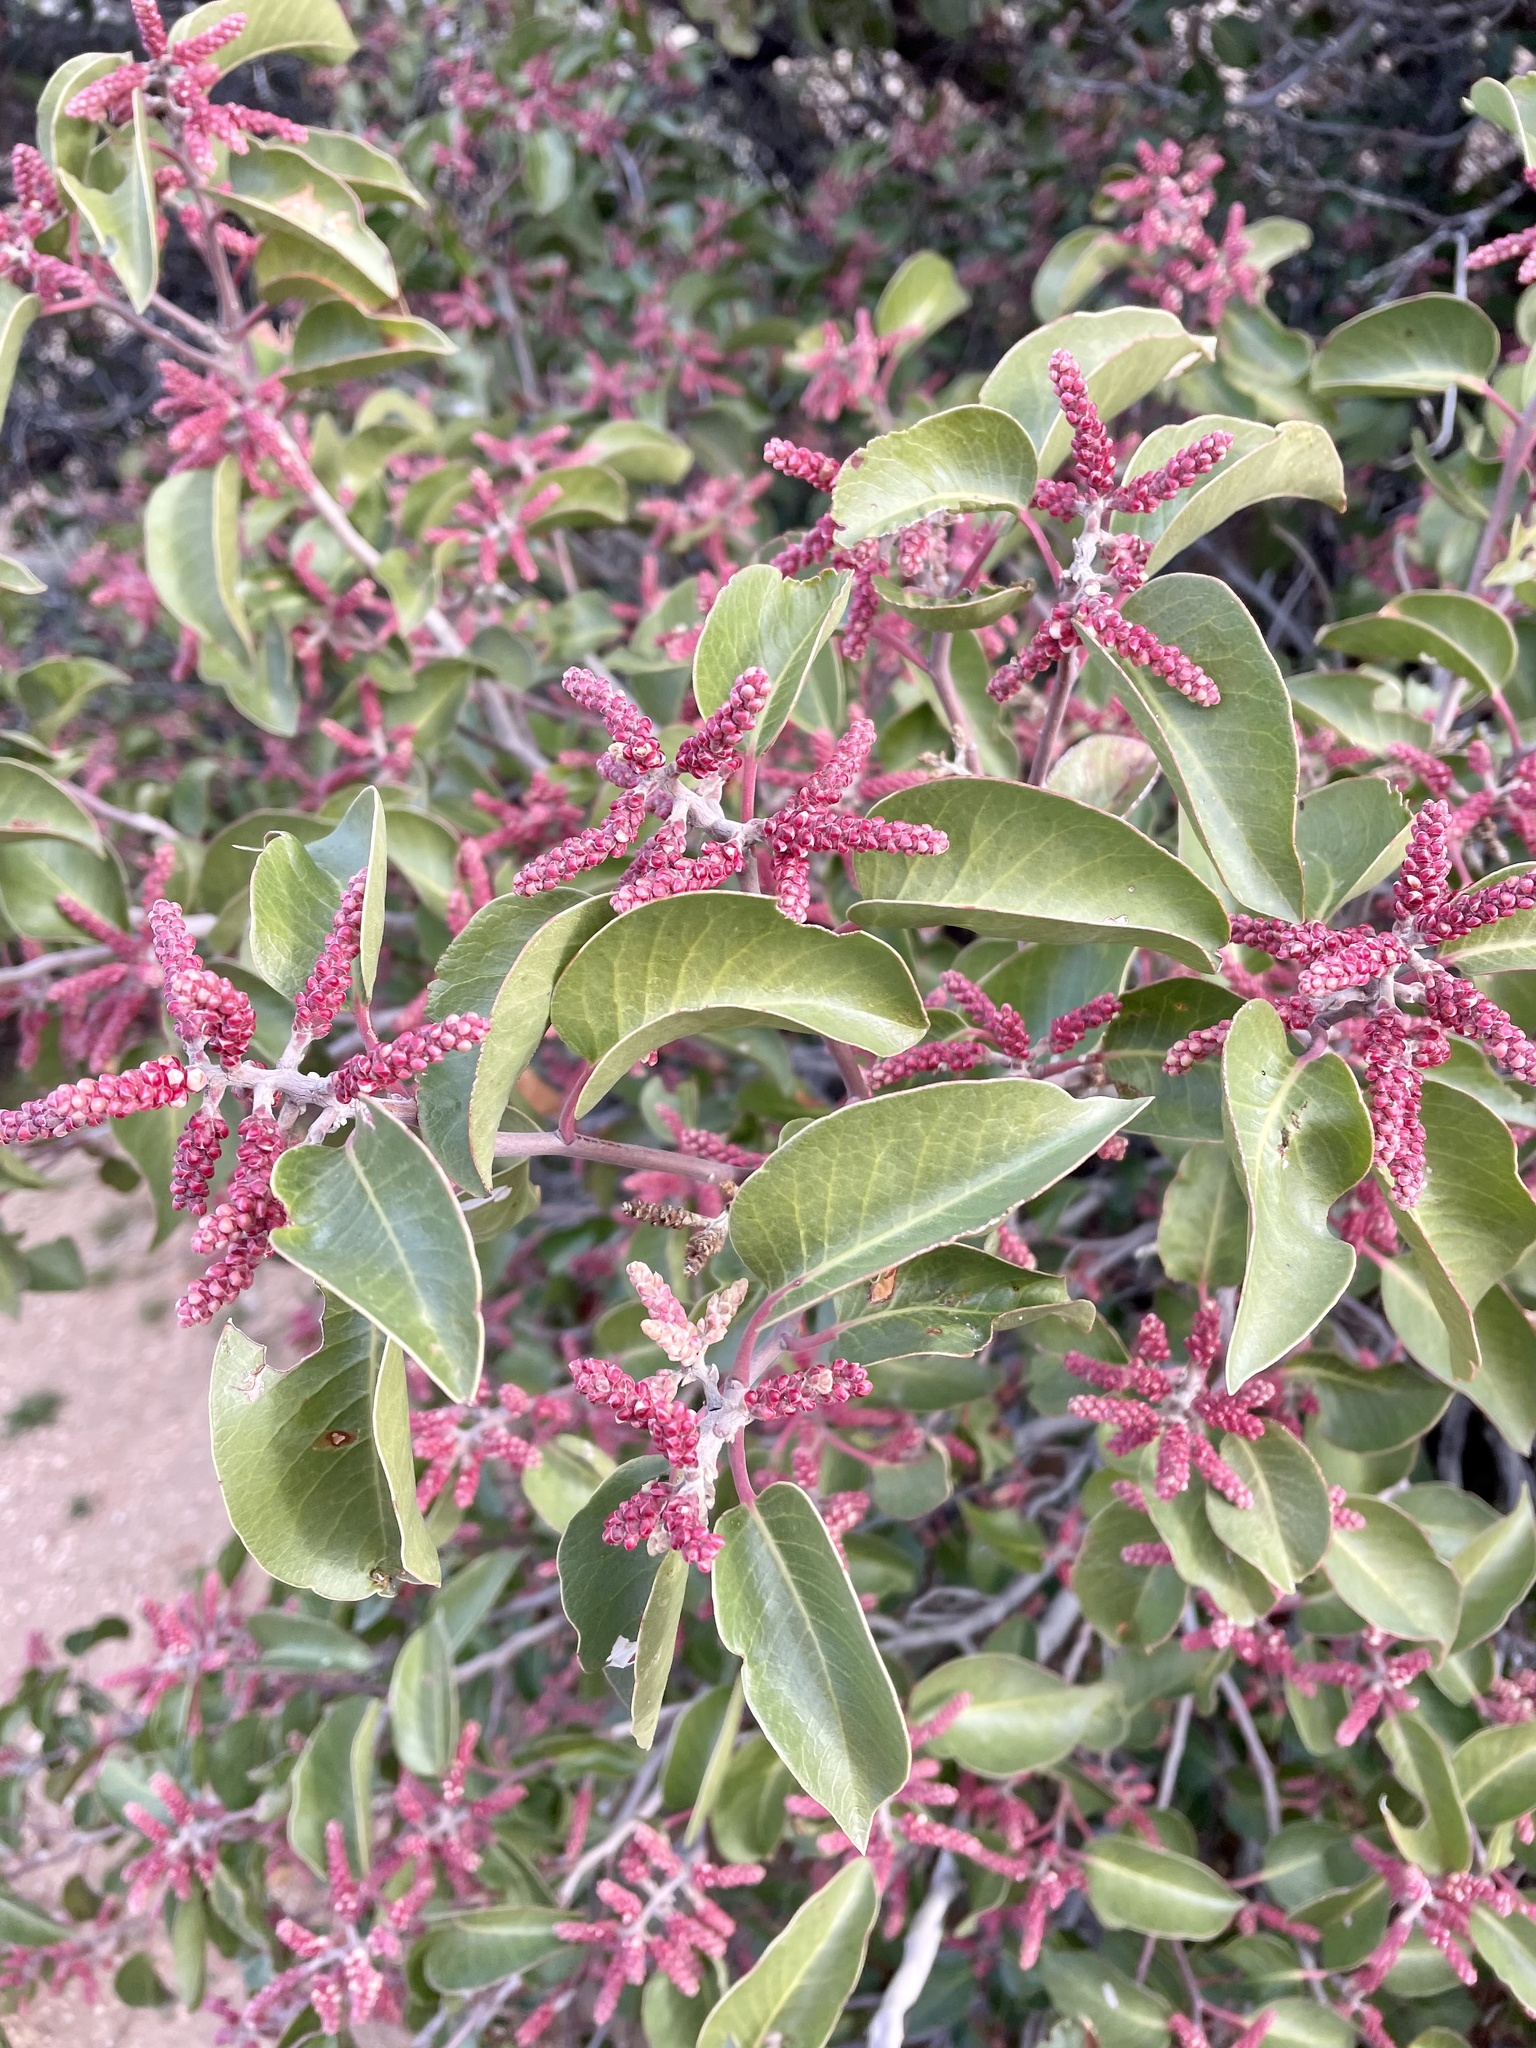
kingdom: Plantae
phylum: Tracheophyta
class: Magnoliopsida
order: Sapindales
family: Anacardiaceae
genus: Rhus
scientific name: Rhus ovata
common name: Sugar sumac
